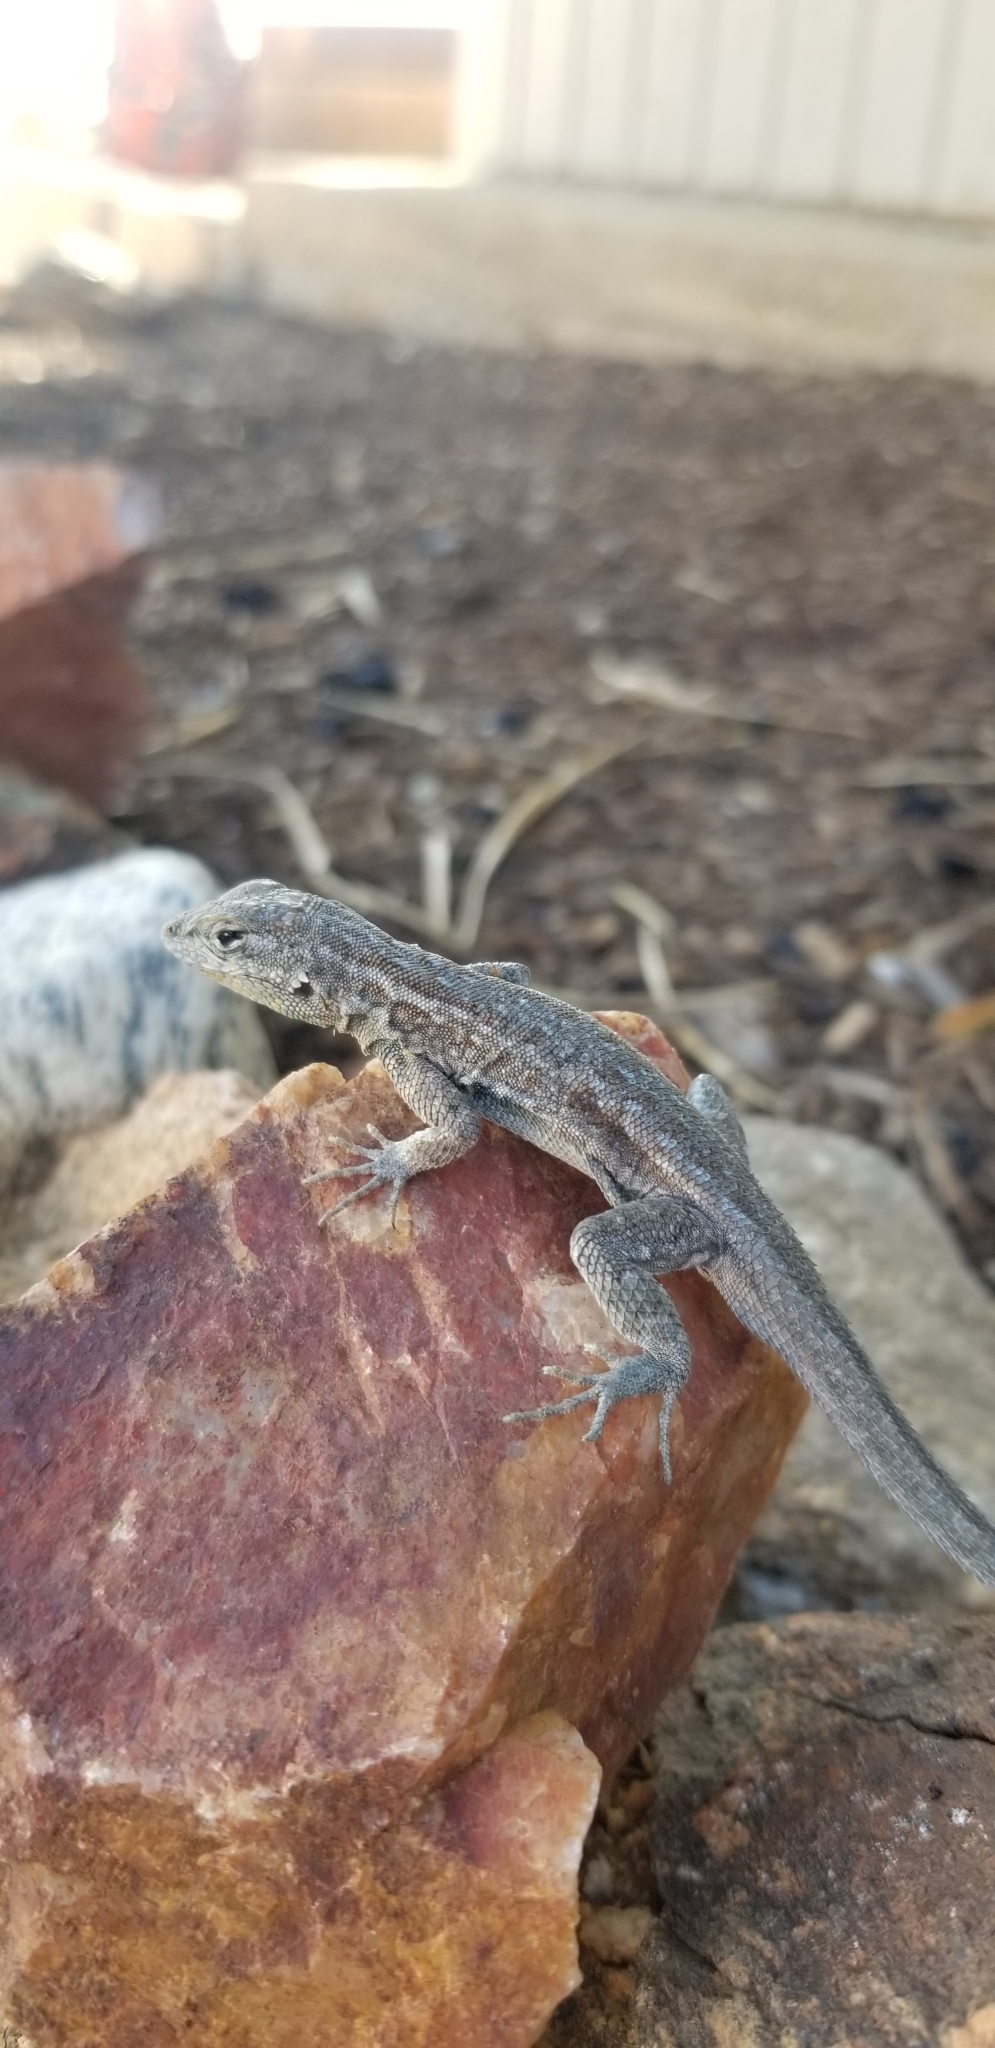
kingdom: Animalia
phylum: Chordata
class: Squamata
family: Phrynosomatidae
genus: Uta
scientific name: Uta stansburiana
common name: Side-blotched lizard
